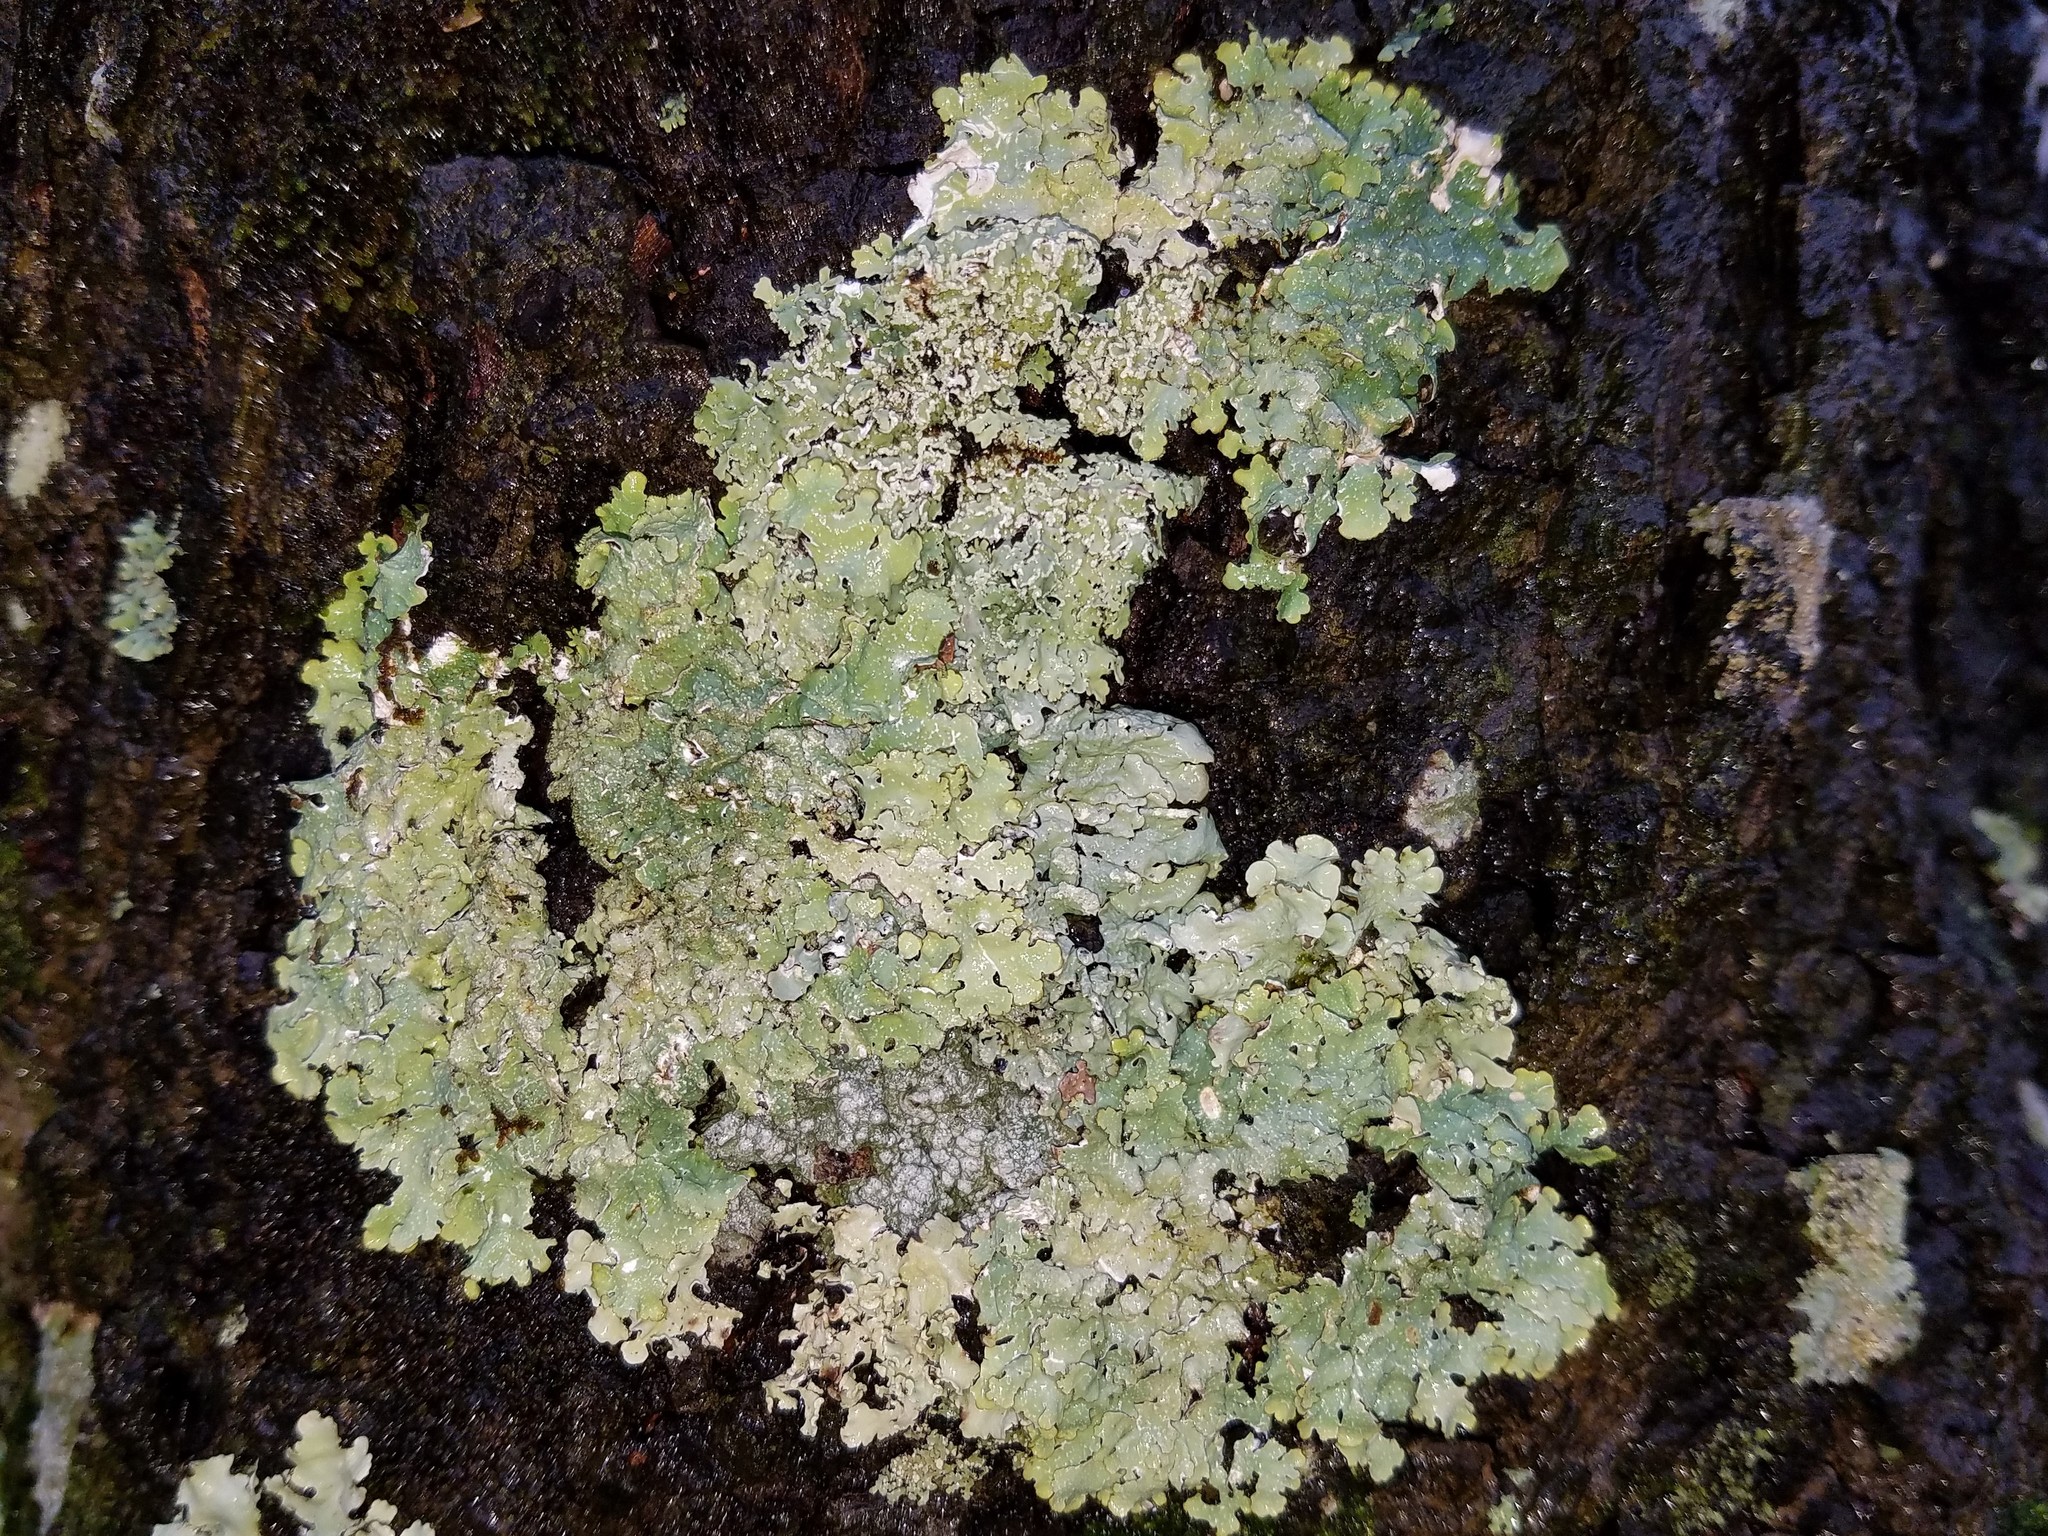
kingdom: Fungi
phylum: Ascomycota
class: Lecanoromycetes
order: Lecanorales
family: Parmeliaceae
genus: Punctelia
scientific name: Punctelia rudecta
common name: Rough speckled shield lichen
